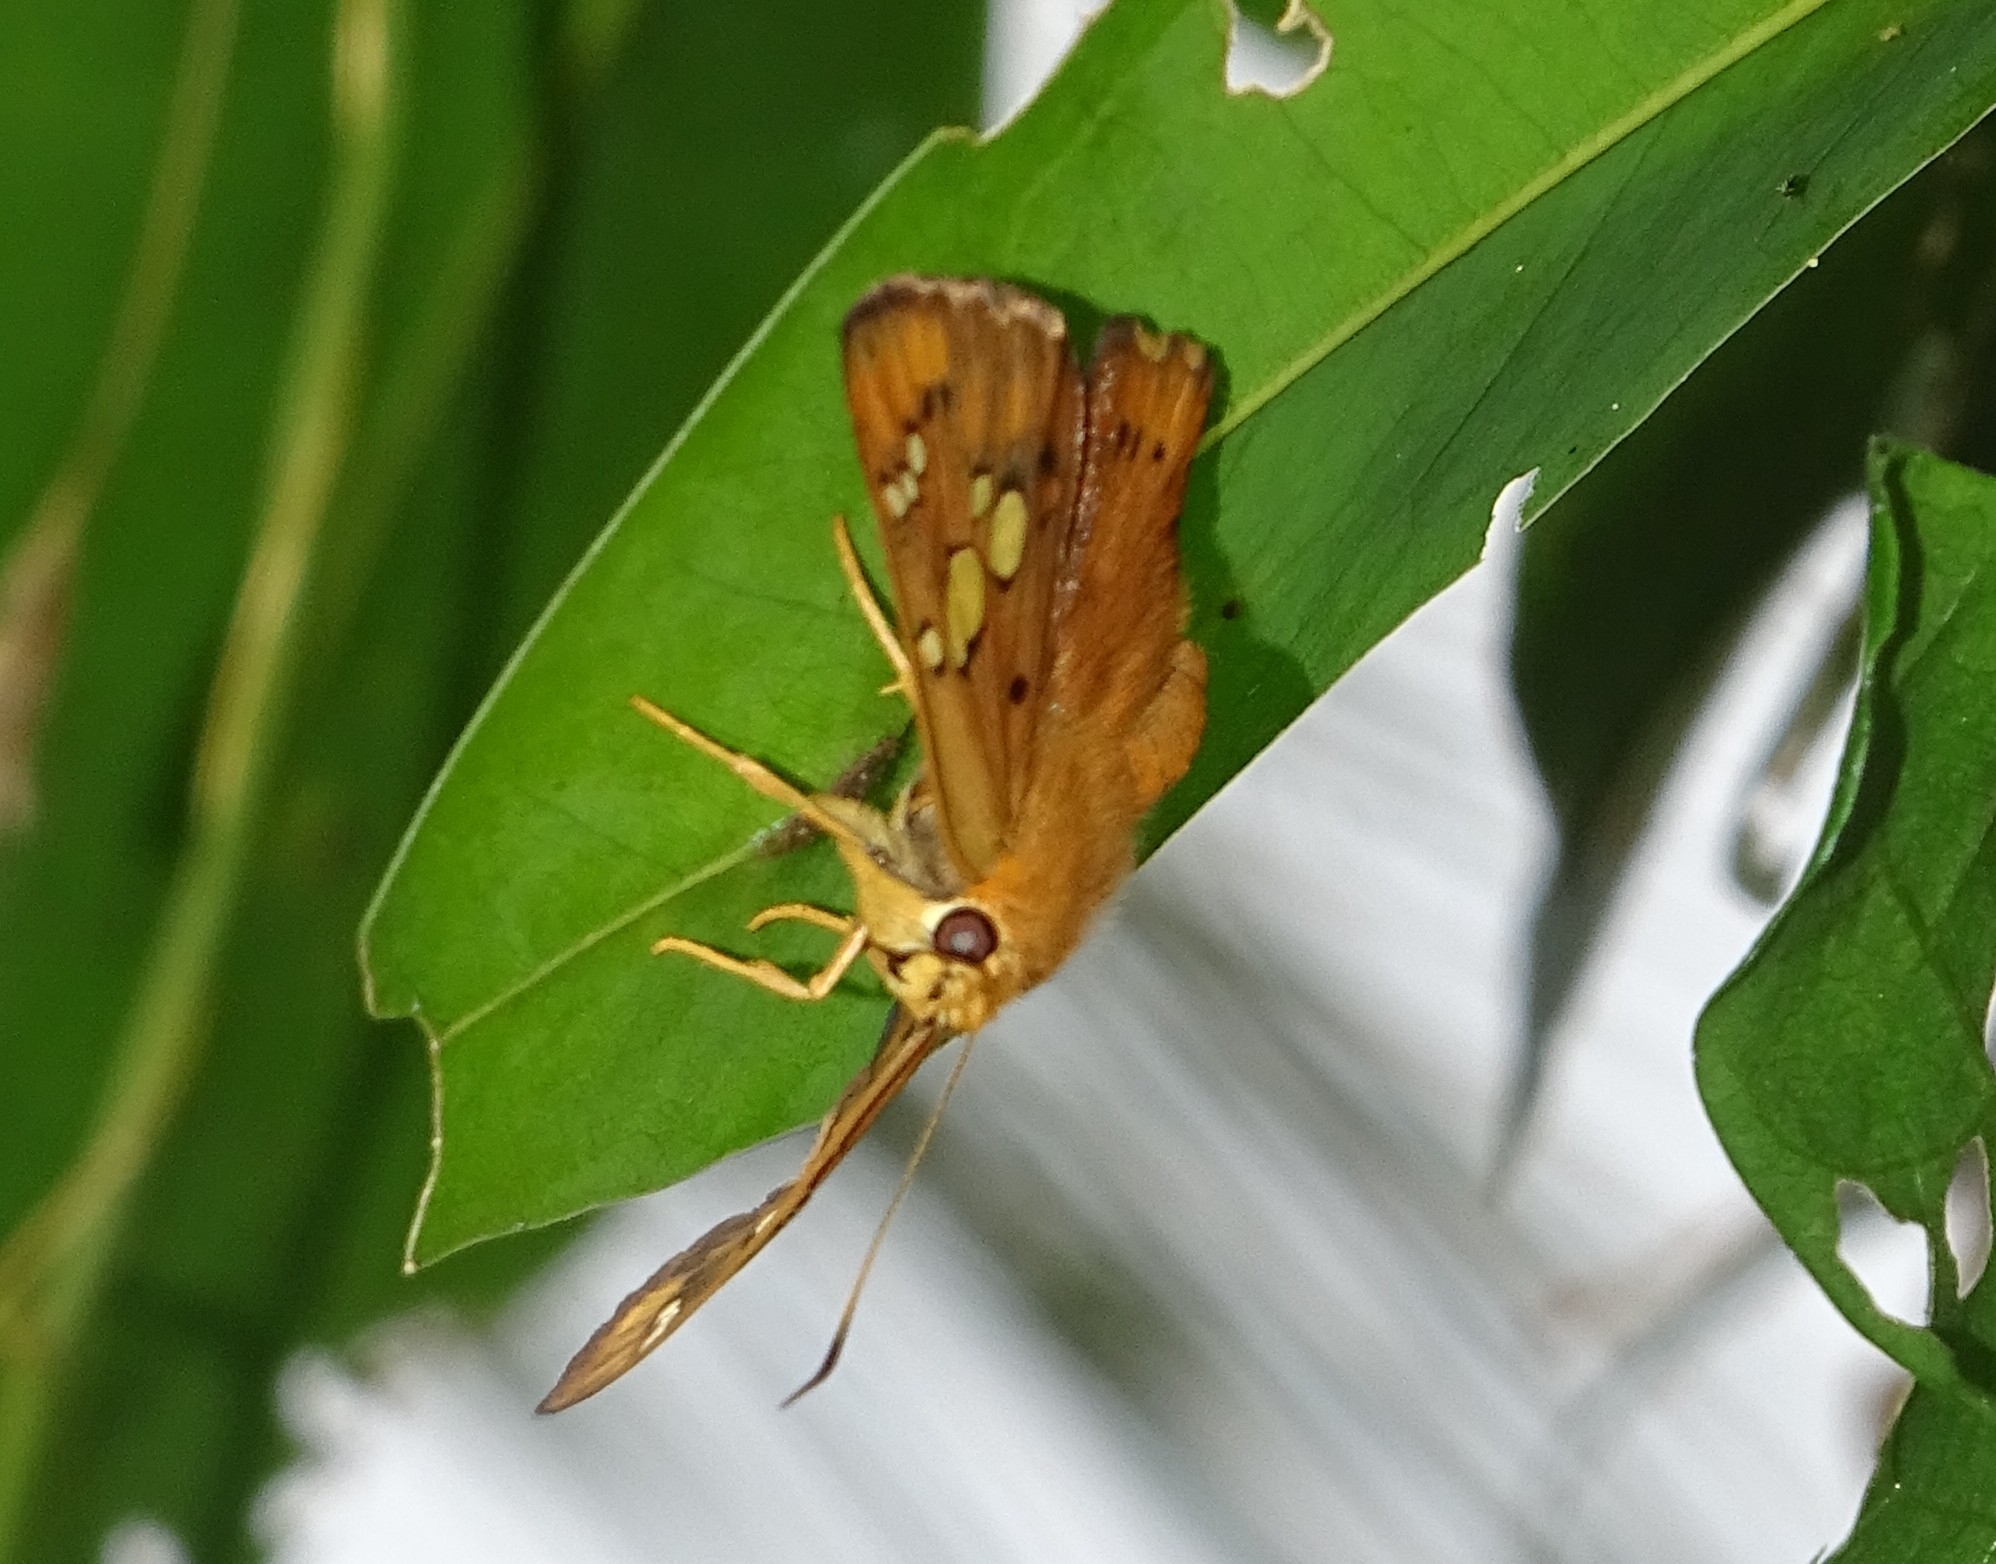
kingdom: Animalia
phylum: Arthropoda
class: Insecta
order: Lepidoptera
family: Hesperiidae
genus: Coladenia
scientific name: Coladenia
